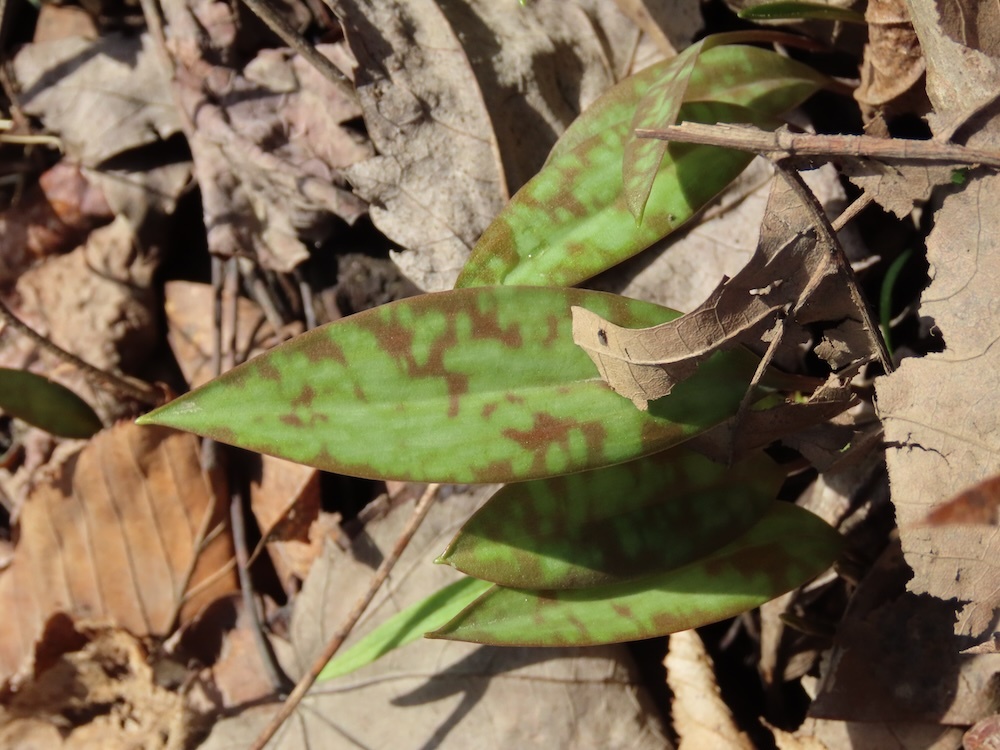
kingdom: Plantae
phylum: Tracheophyta
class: Liliopsida
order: Liliales
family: Liliaceae
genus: Erythronium
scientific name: Erythronium americanum
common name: Yellow adder's-tongue
